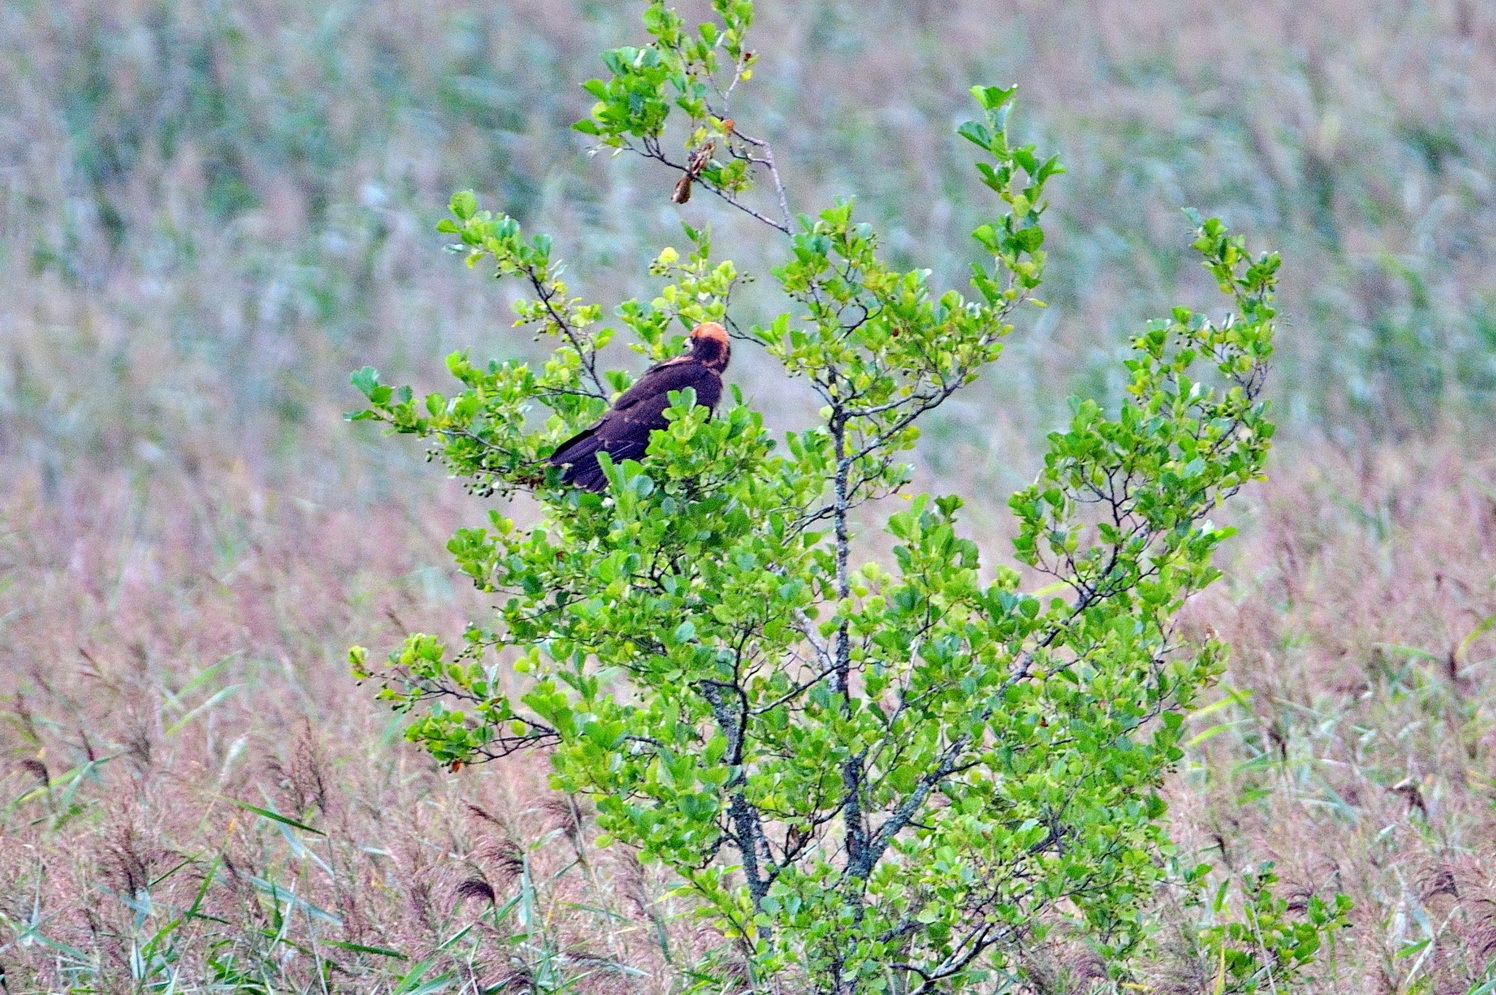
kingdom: Animalia
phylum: Chordata
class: Aves
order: Accipitriformes
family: Accipitridae
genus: Circus
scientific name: Circus aeruginosus
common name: Western marsh harrier
